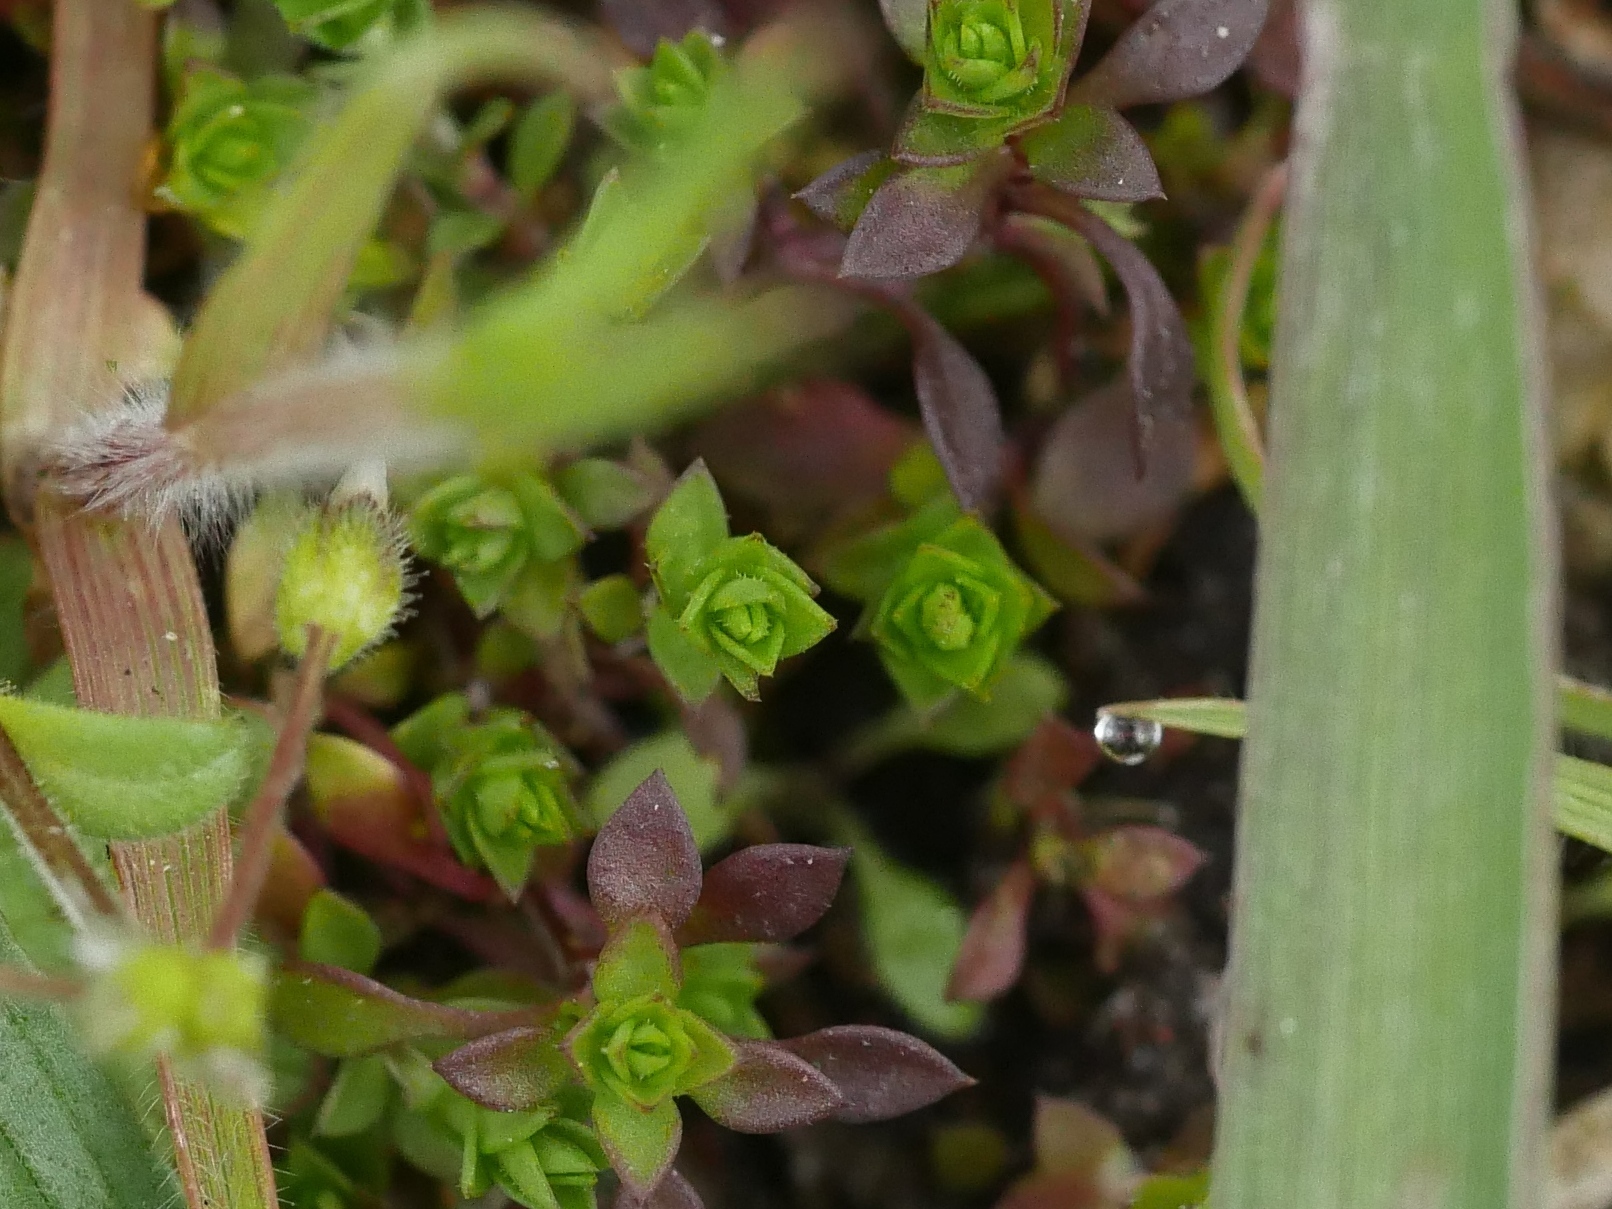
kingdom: Plantae
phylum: Tracheophyta
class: Magnoliopsida
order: Caryophyllales
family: Caryophyllaceae
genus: Arenaria
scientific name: Arenaria serpyllifolia
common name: Thyme-leaved sandwort
